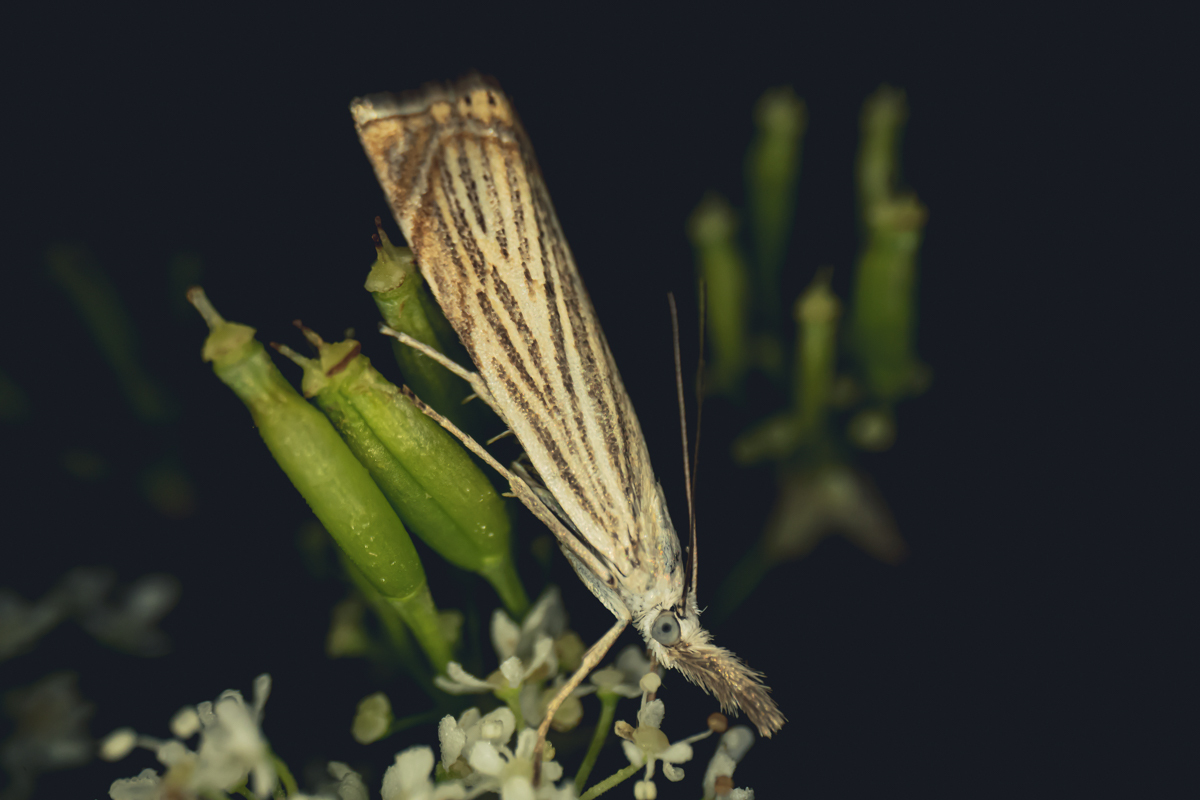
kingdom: Animalia
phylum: Arthropoda
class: Insecta
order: Lepidoptera
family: Crambidae
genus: Chrysoteuchia
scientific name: Chrysoteuchia culmella
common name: Garden grass-veneer
